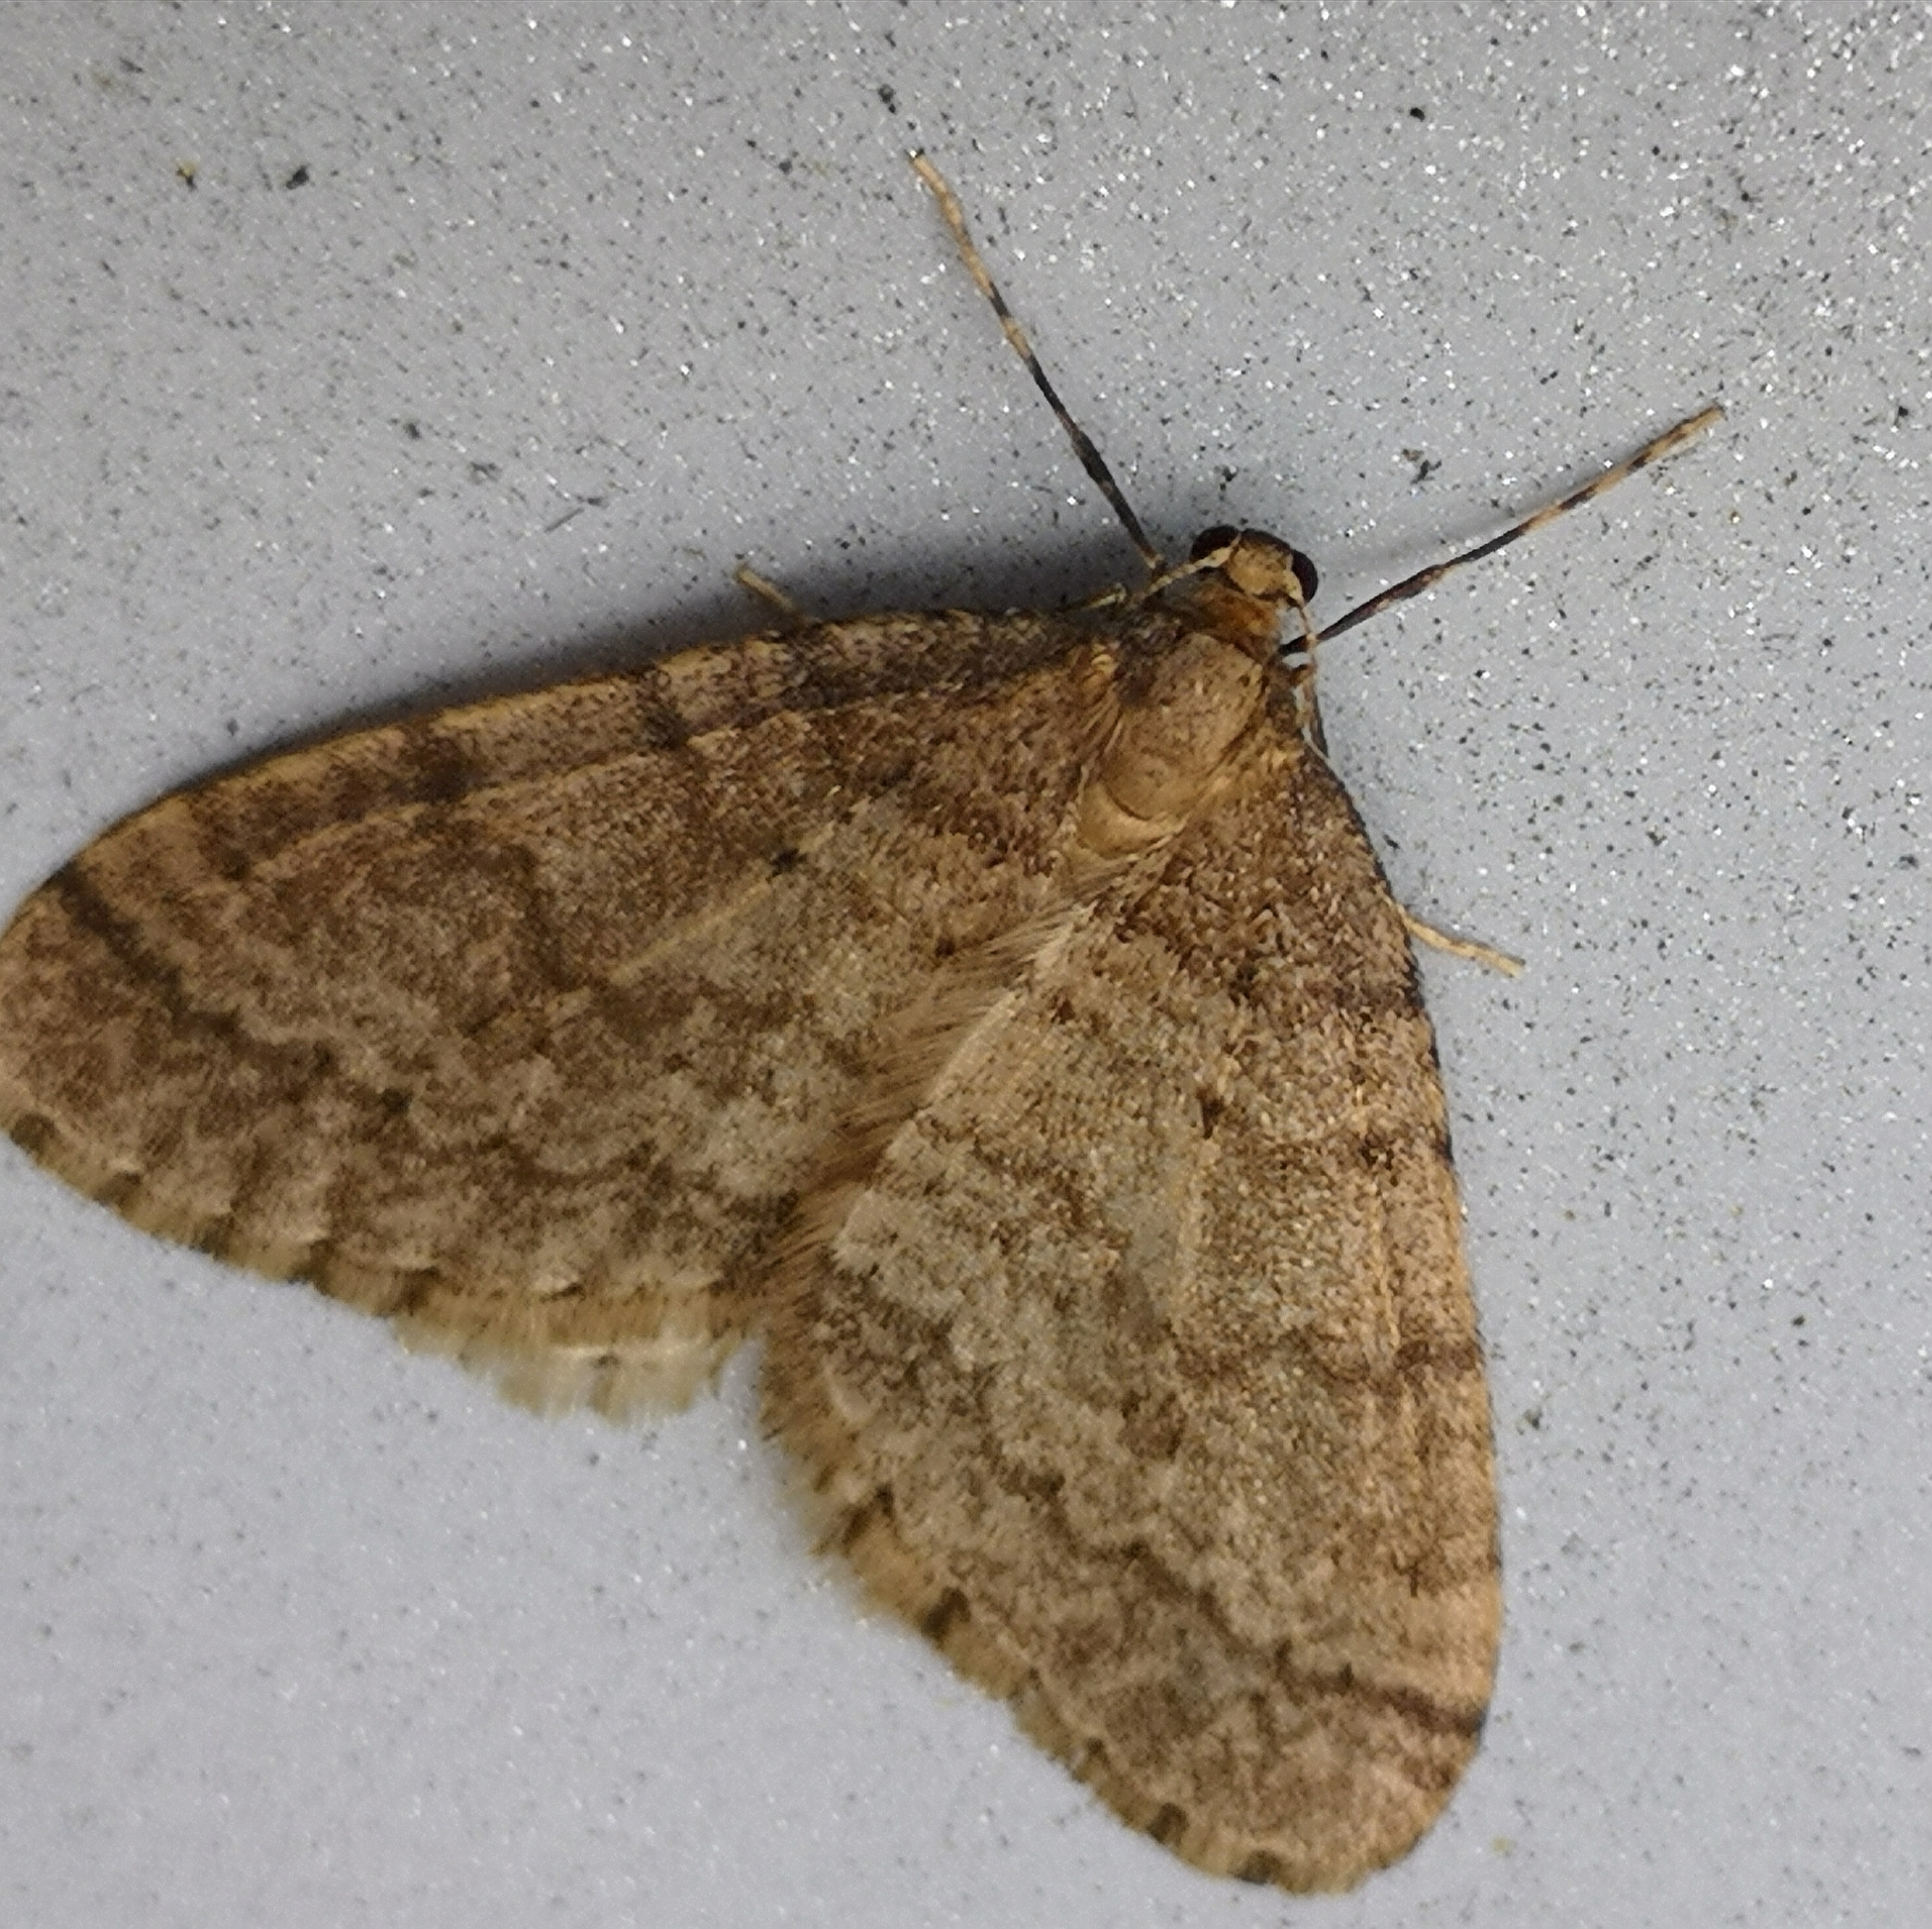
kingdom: Animalia
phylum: Arthropoda
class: Insecta
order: Lepidoptera
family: Geometridae
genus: Operophtera
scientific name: Operophtera brumata
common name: Winter moth
